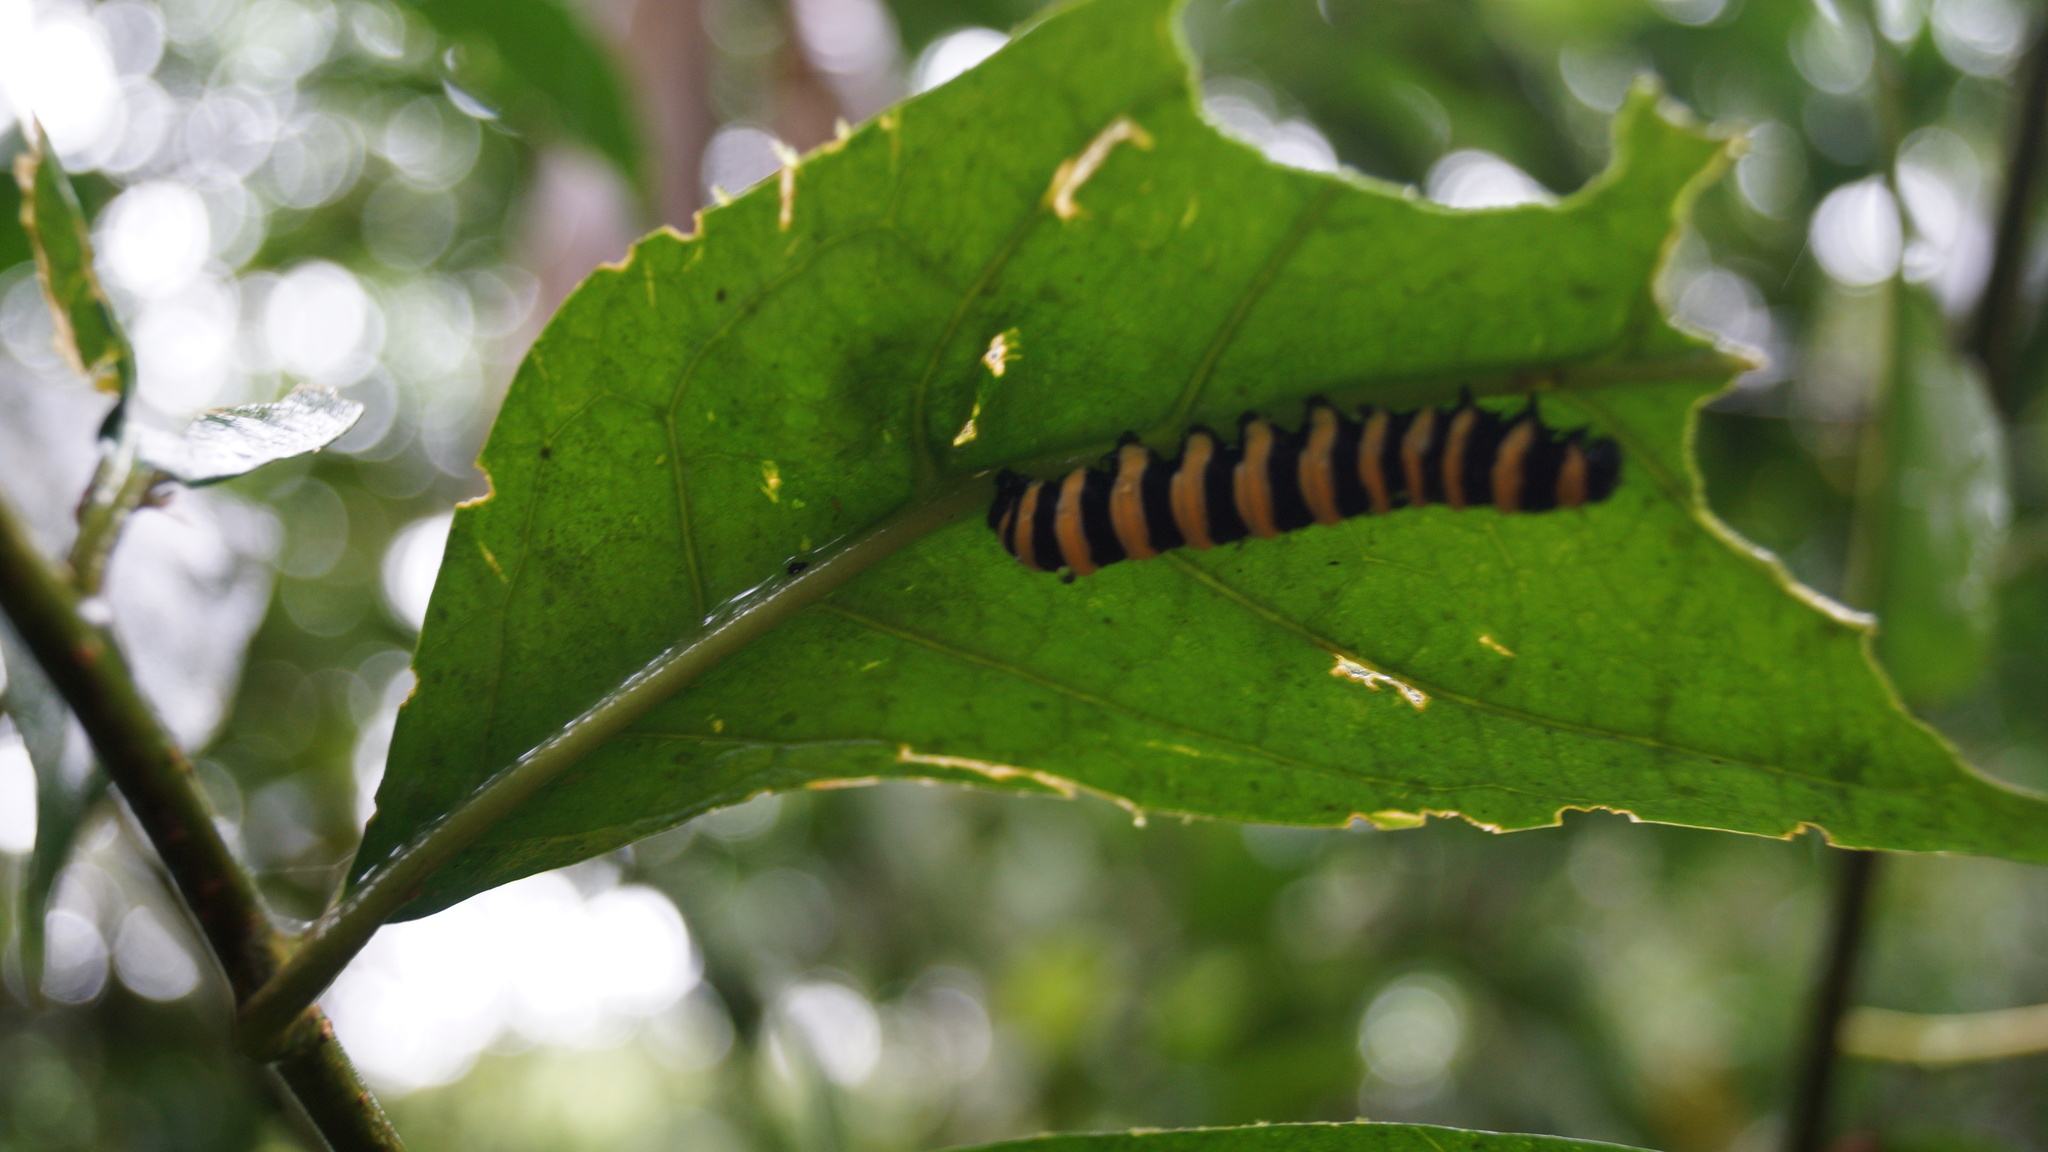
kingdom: Animalia
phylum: Arthropoda
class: Insecta
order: Lepidoptera
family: Nymphalidae
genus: Methona
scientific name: Methona confusa
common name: Confusa tigerwing
